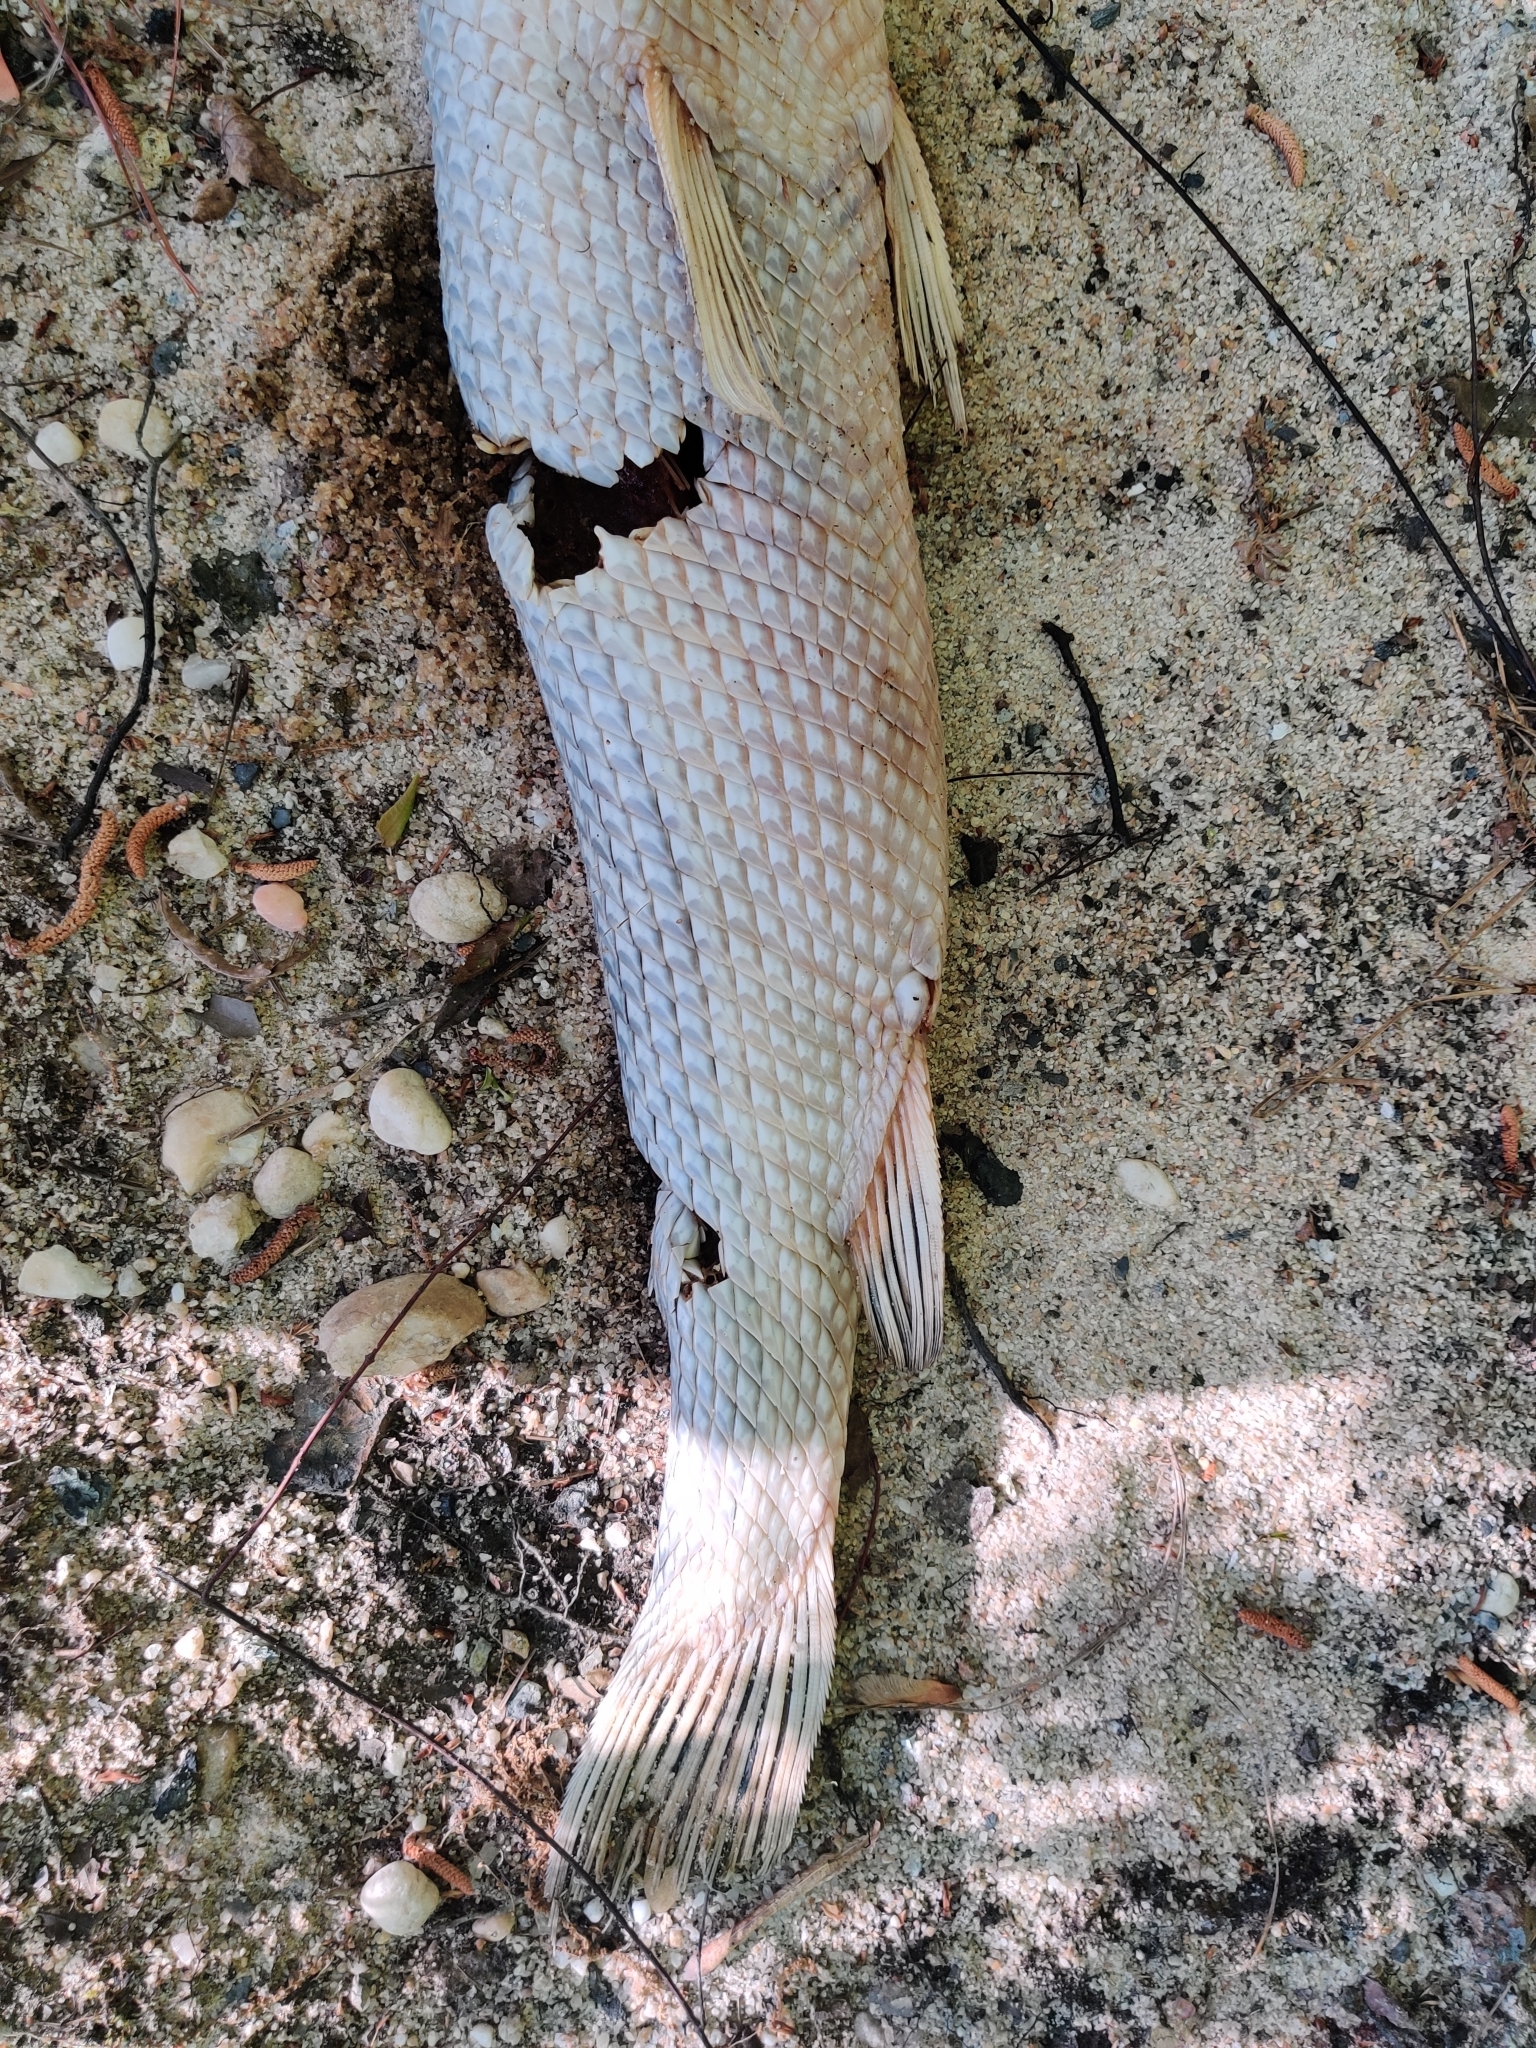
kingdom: Animalia
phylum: Chordata
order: Lepisosteiformes
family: Lepisosteidae
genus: Lepisosteus
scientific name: Lepisosteus osseus
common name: Longnose gar
